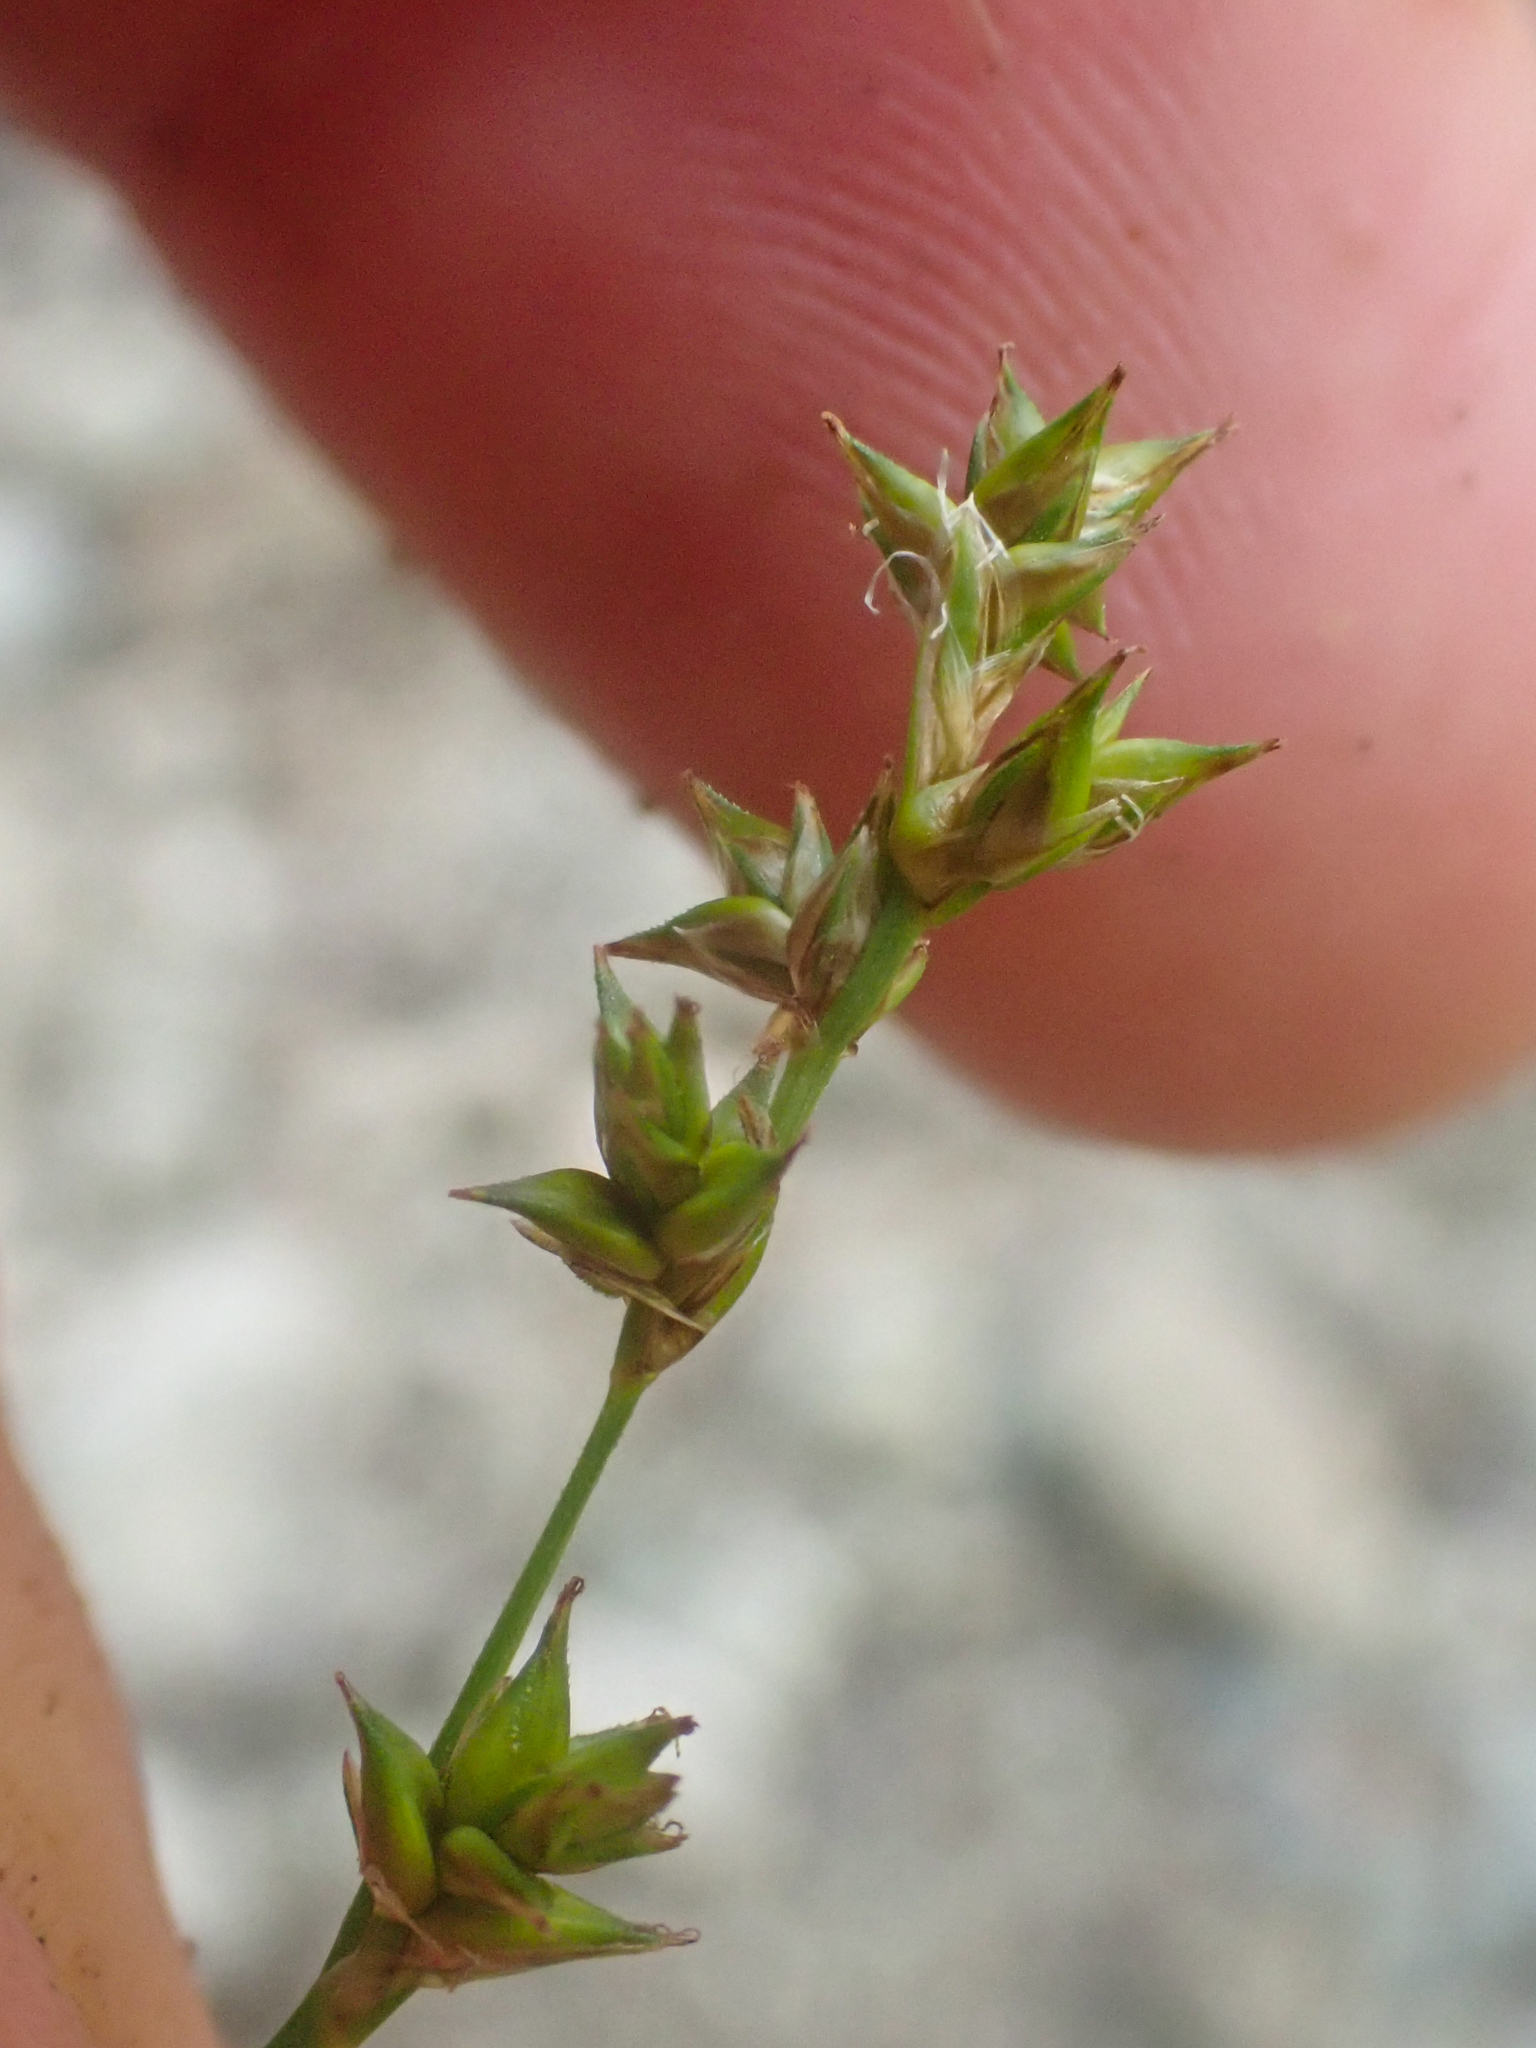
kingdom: Plantae
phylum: Tracheophyta
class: Liliopsida
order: Poales
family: Cyperaceae
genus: Carex
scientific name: Carex laeviculmis
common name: Smooth sedge
